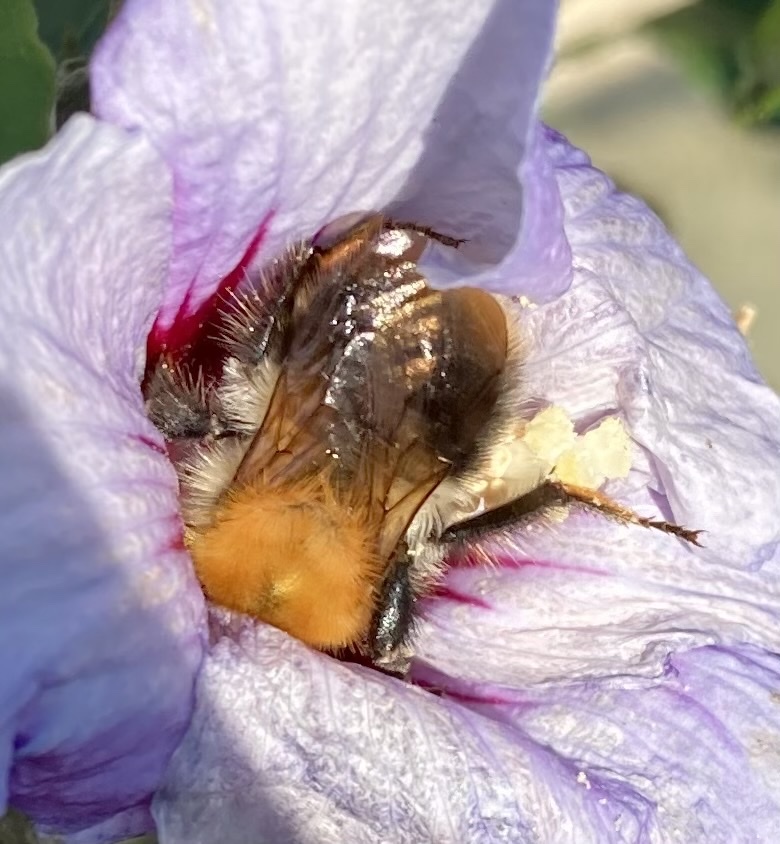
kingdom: Animalia
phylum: Arthropoda
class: Insecta
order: Hymenoptera
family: Apidae
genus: Bombus
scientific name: Bombus pascuorum
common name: Common carder bee
